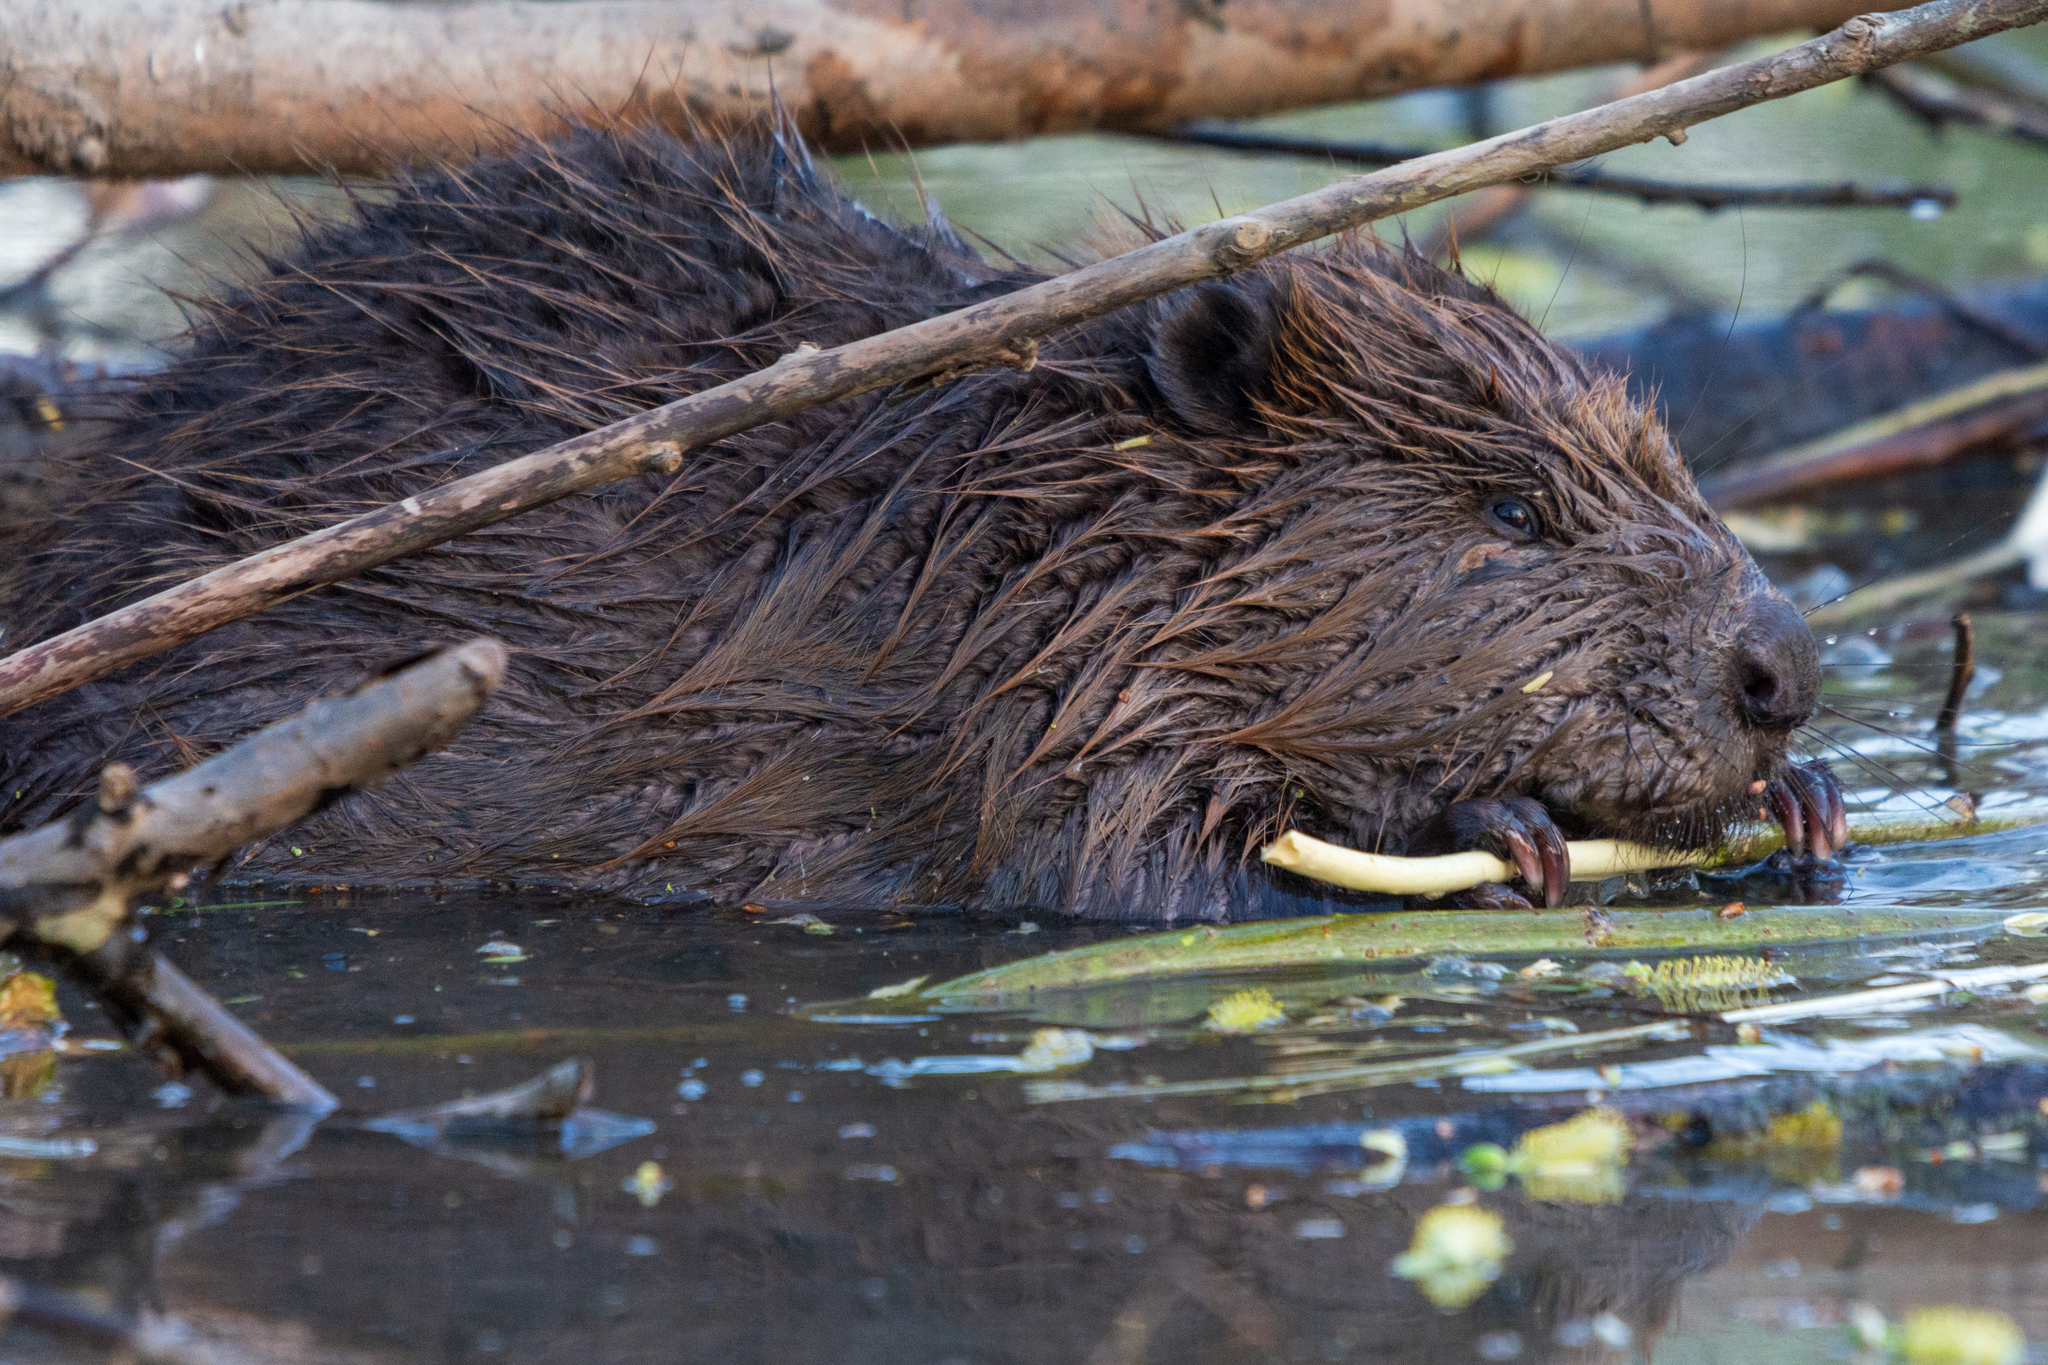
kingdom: Animalia
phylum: Chordata
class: Mammalia
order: Rodentia
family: Castoridae
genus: Castor
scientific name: Castor fiber
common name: Eurasian beaver
